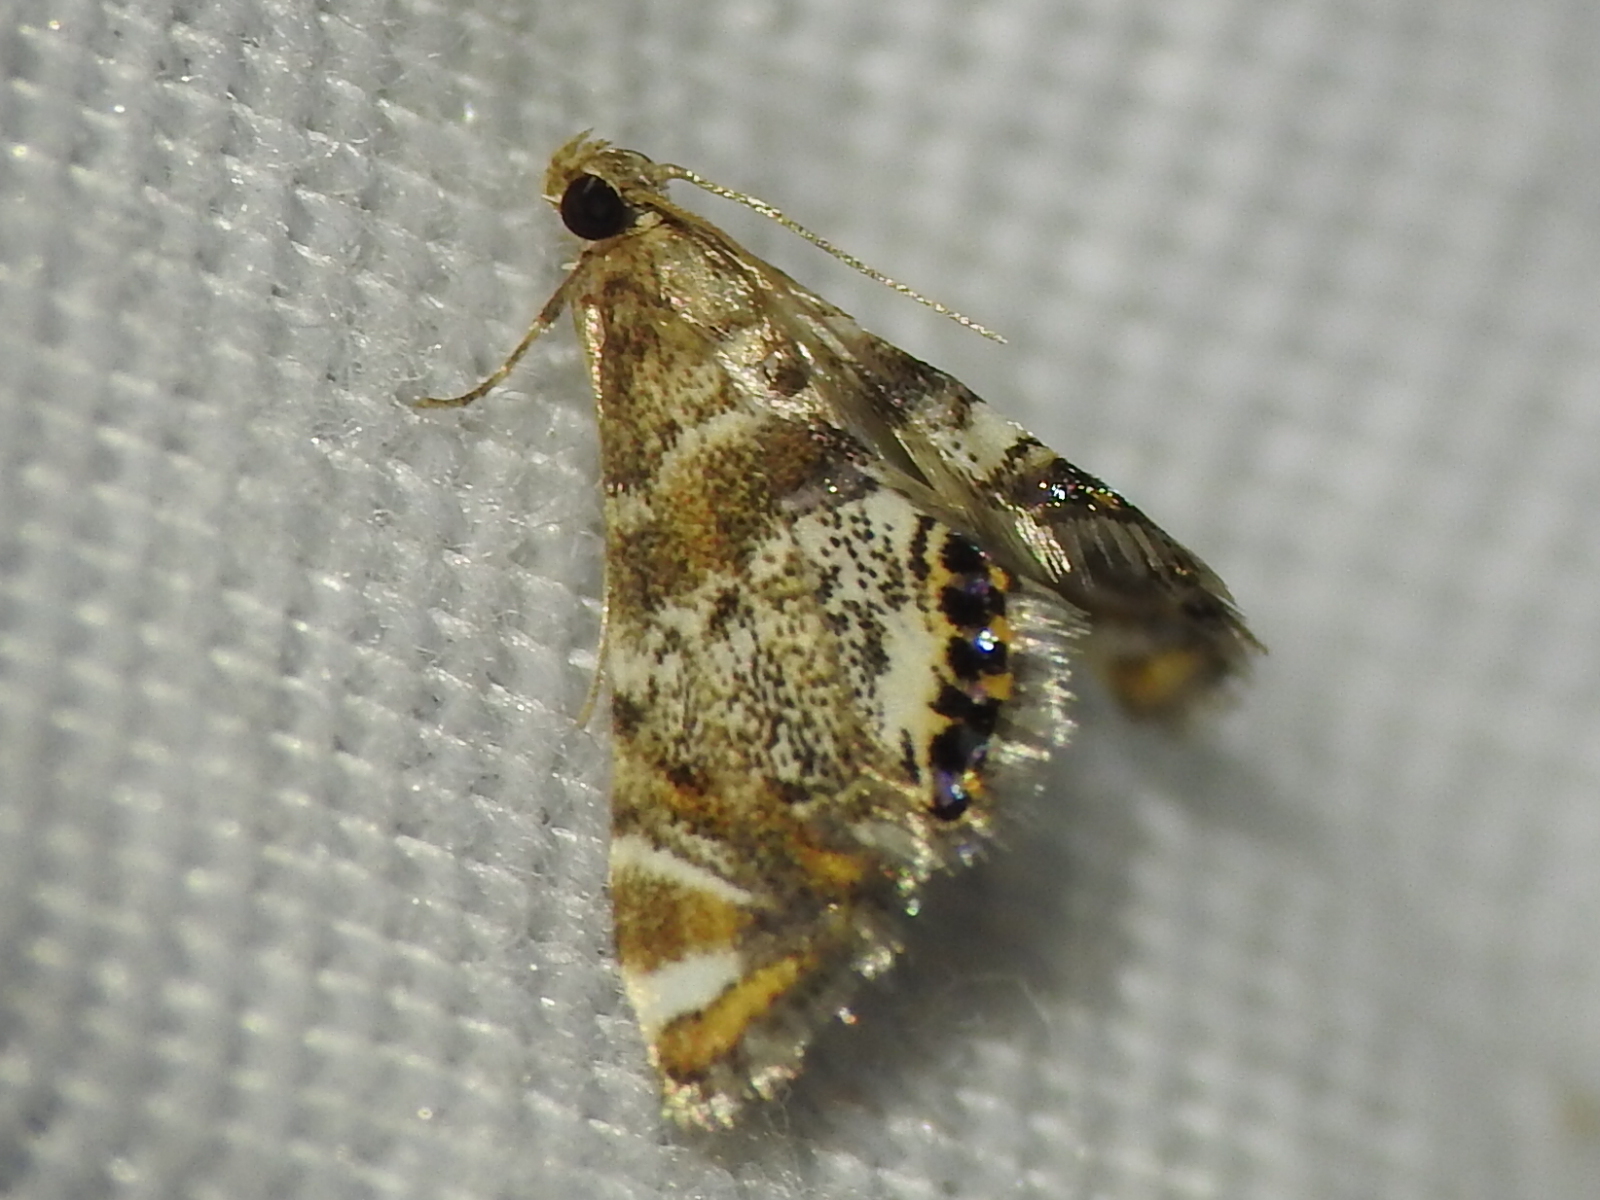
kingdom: Animalia
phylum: Arthropoda
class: Insecta
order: Lepidoptera
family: Crambidae
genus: Petrophila
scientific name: Petrophila fulicalis
